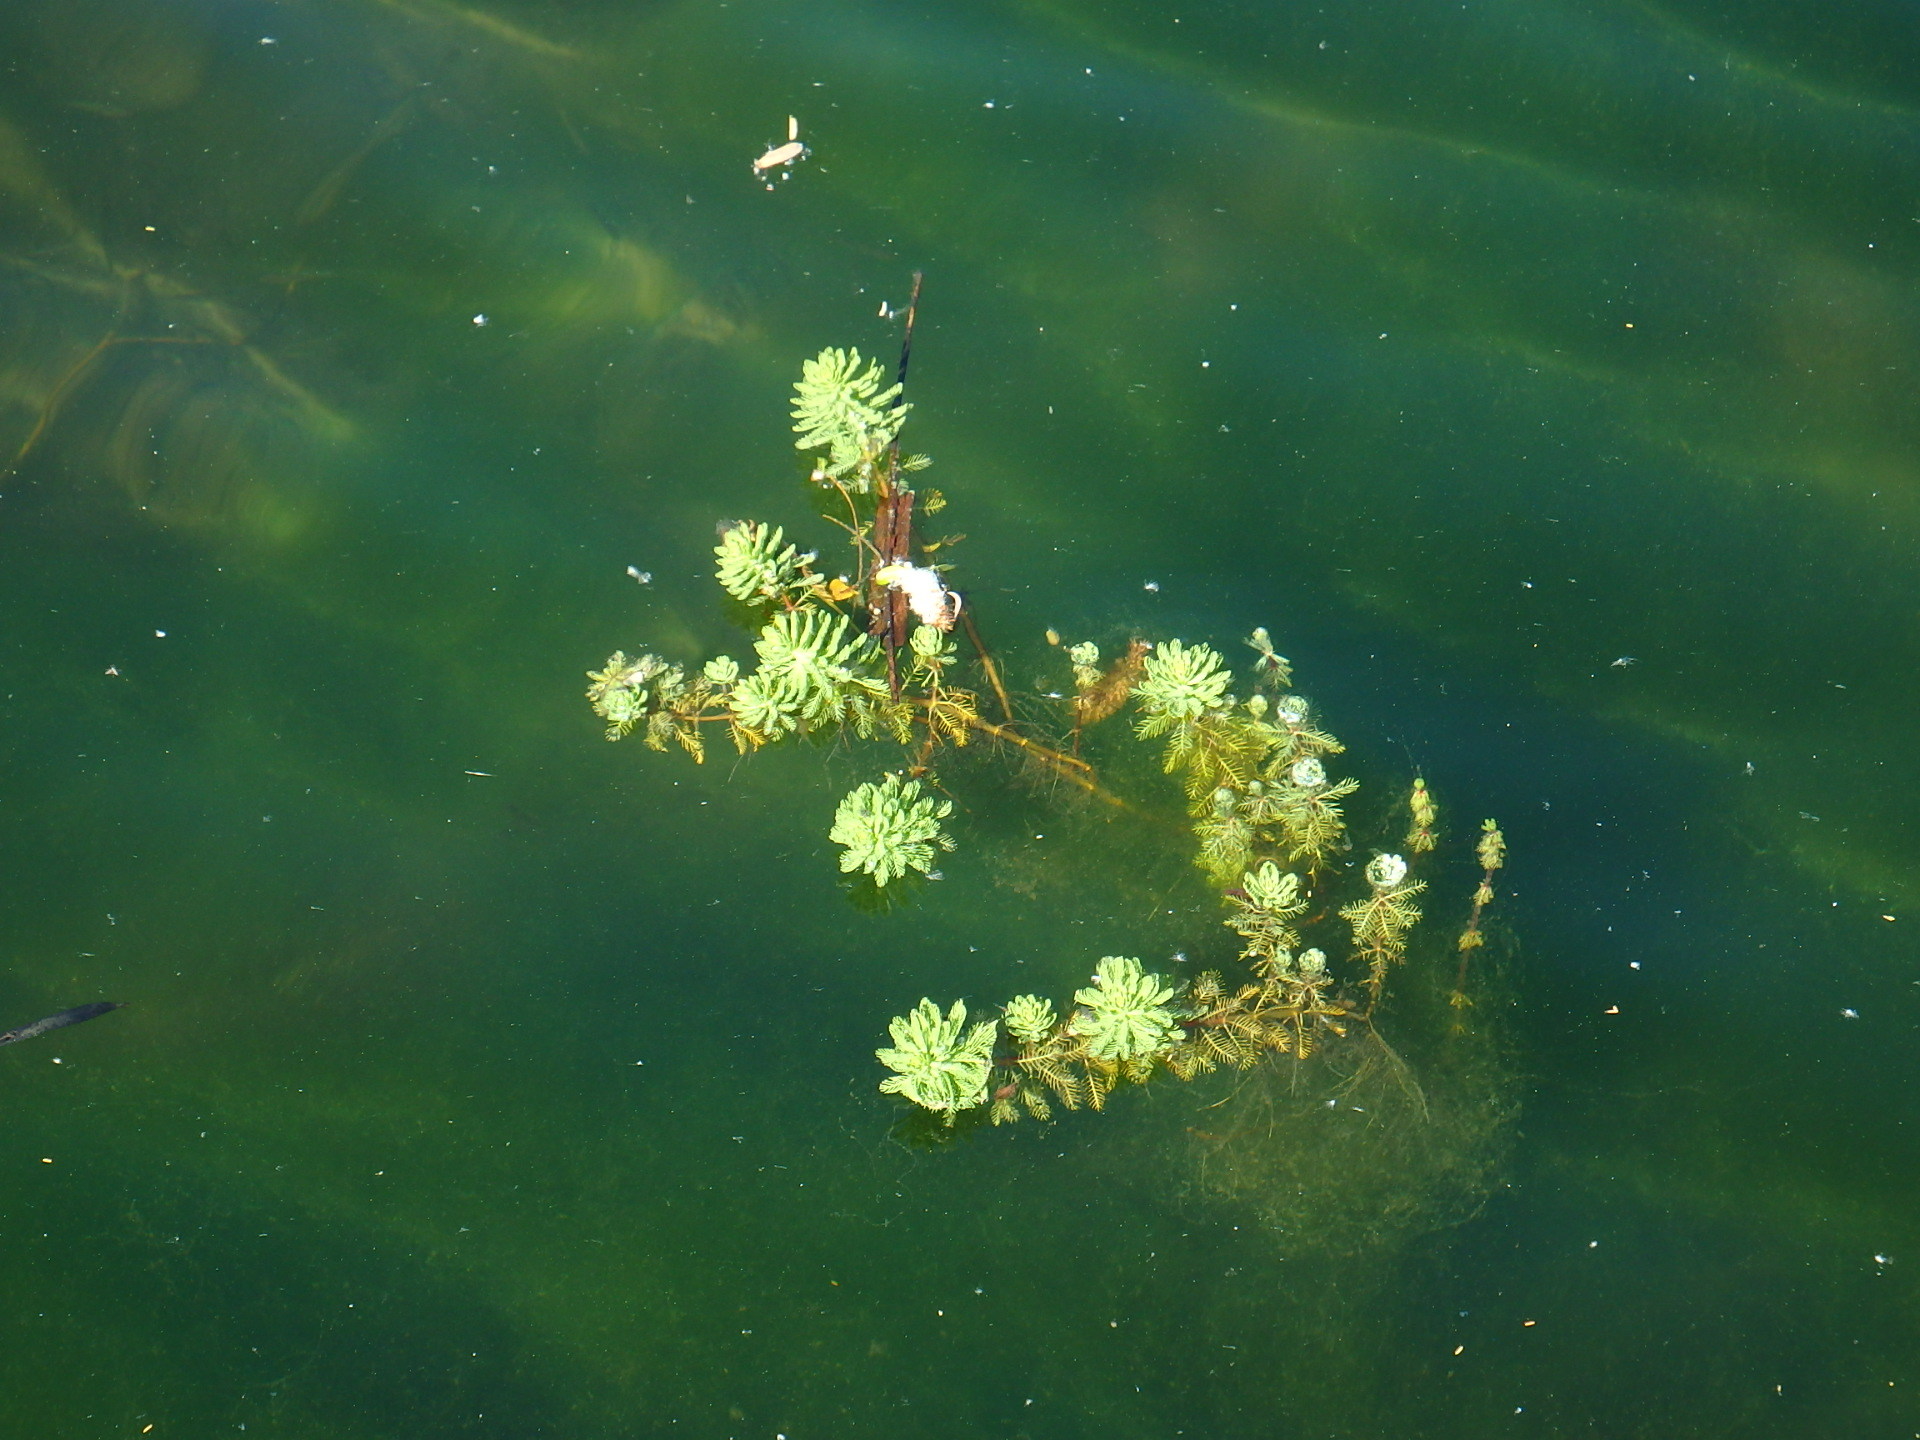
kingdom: Plantae
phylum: Tracheophyta
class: Magnoliopsida
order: Saxifragales
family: Haloragaceae
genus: Myriophyllum
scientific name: Myriophyllum aquaticum
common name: Parrot's feather
